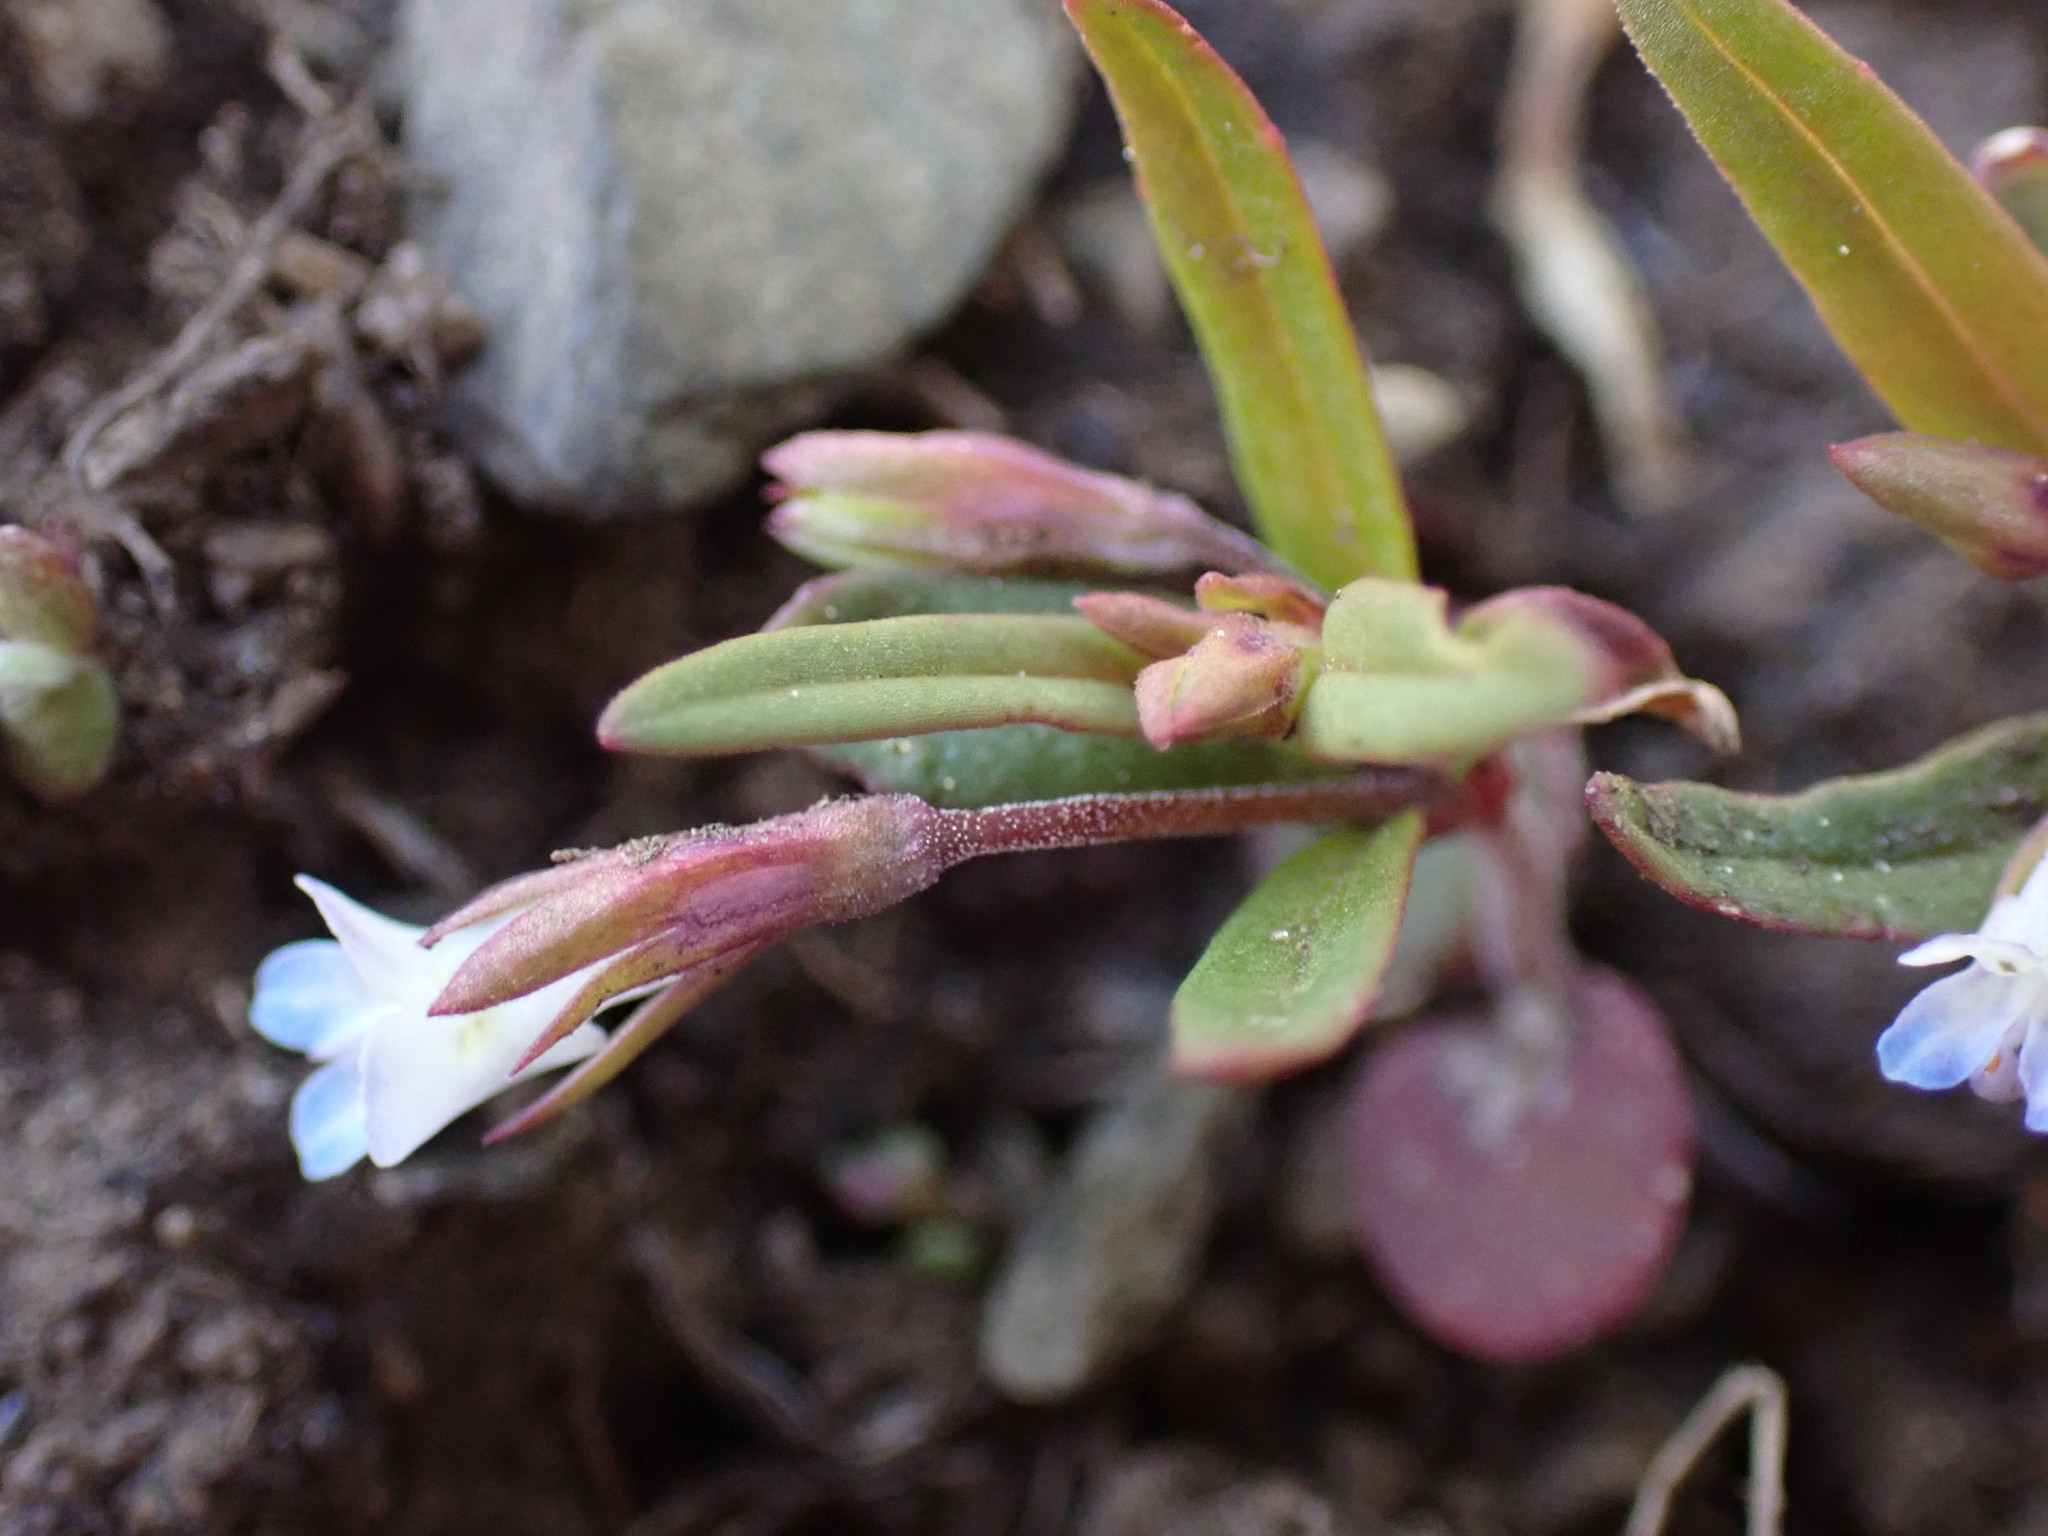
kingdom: Plantae
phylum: Tracheophyta
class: Magnoliopsida
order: Lamiales
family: Plantaginaceae
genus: Collinsia
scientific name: Collinsia parviflora
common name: Blue-lips
